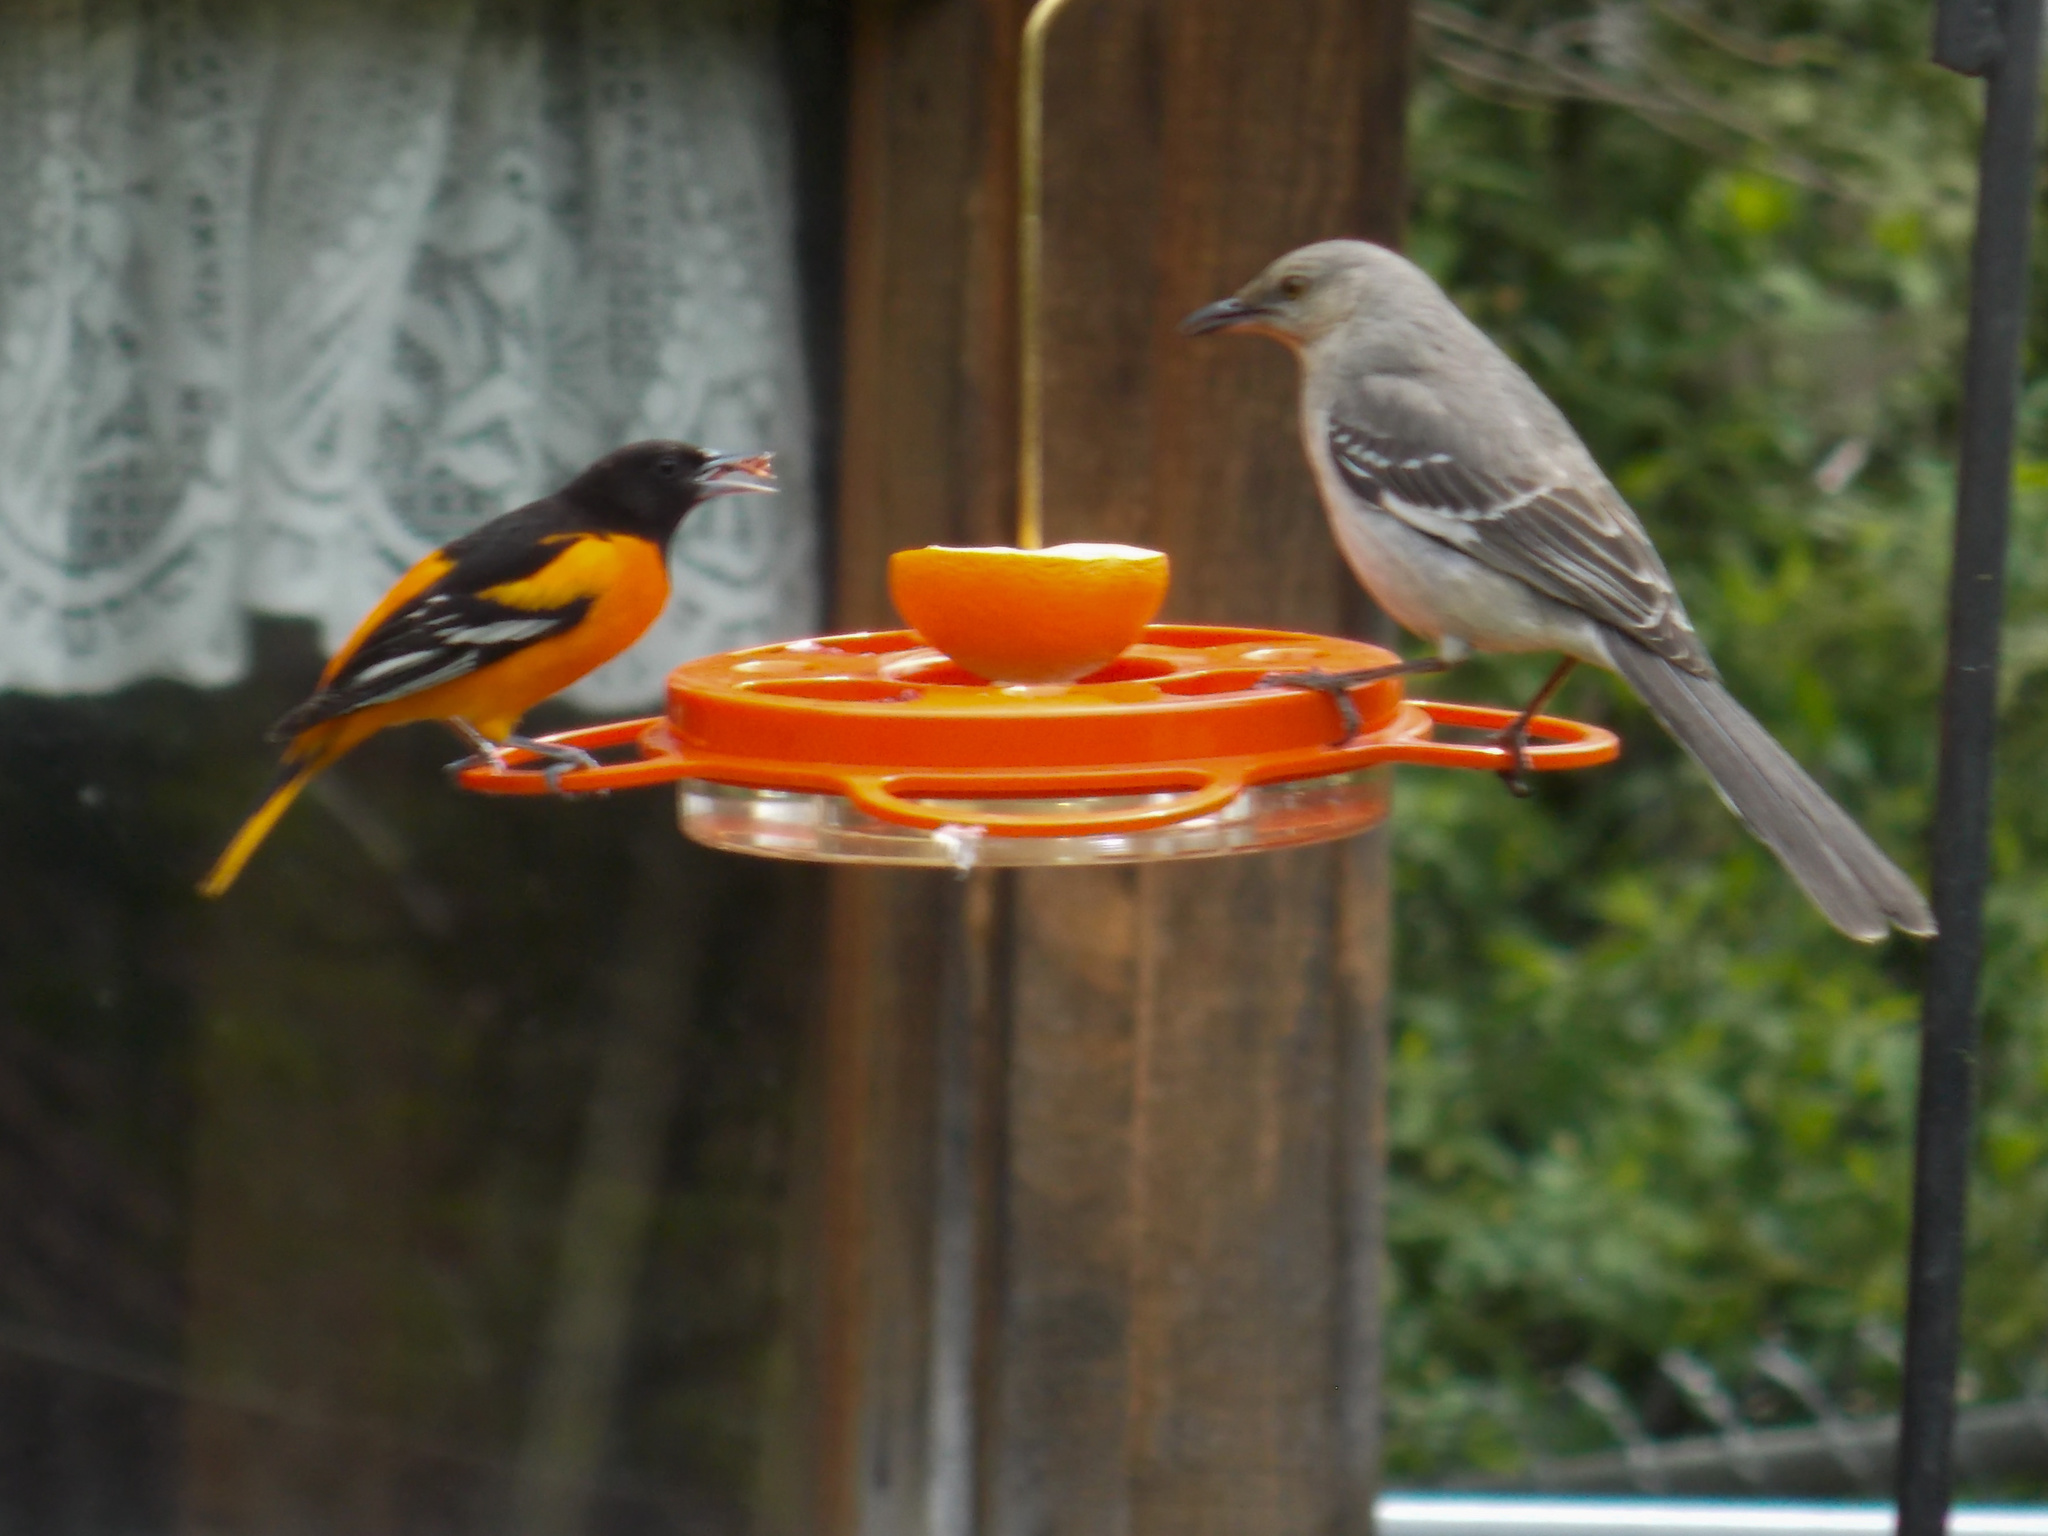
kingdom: Animalia
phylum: Chordata
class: Aves
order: Passeriformes
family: Mimidae
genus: Mimus
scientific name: Mimus polyglottos
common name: Northern mockingbird
